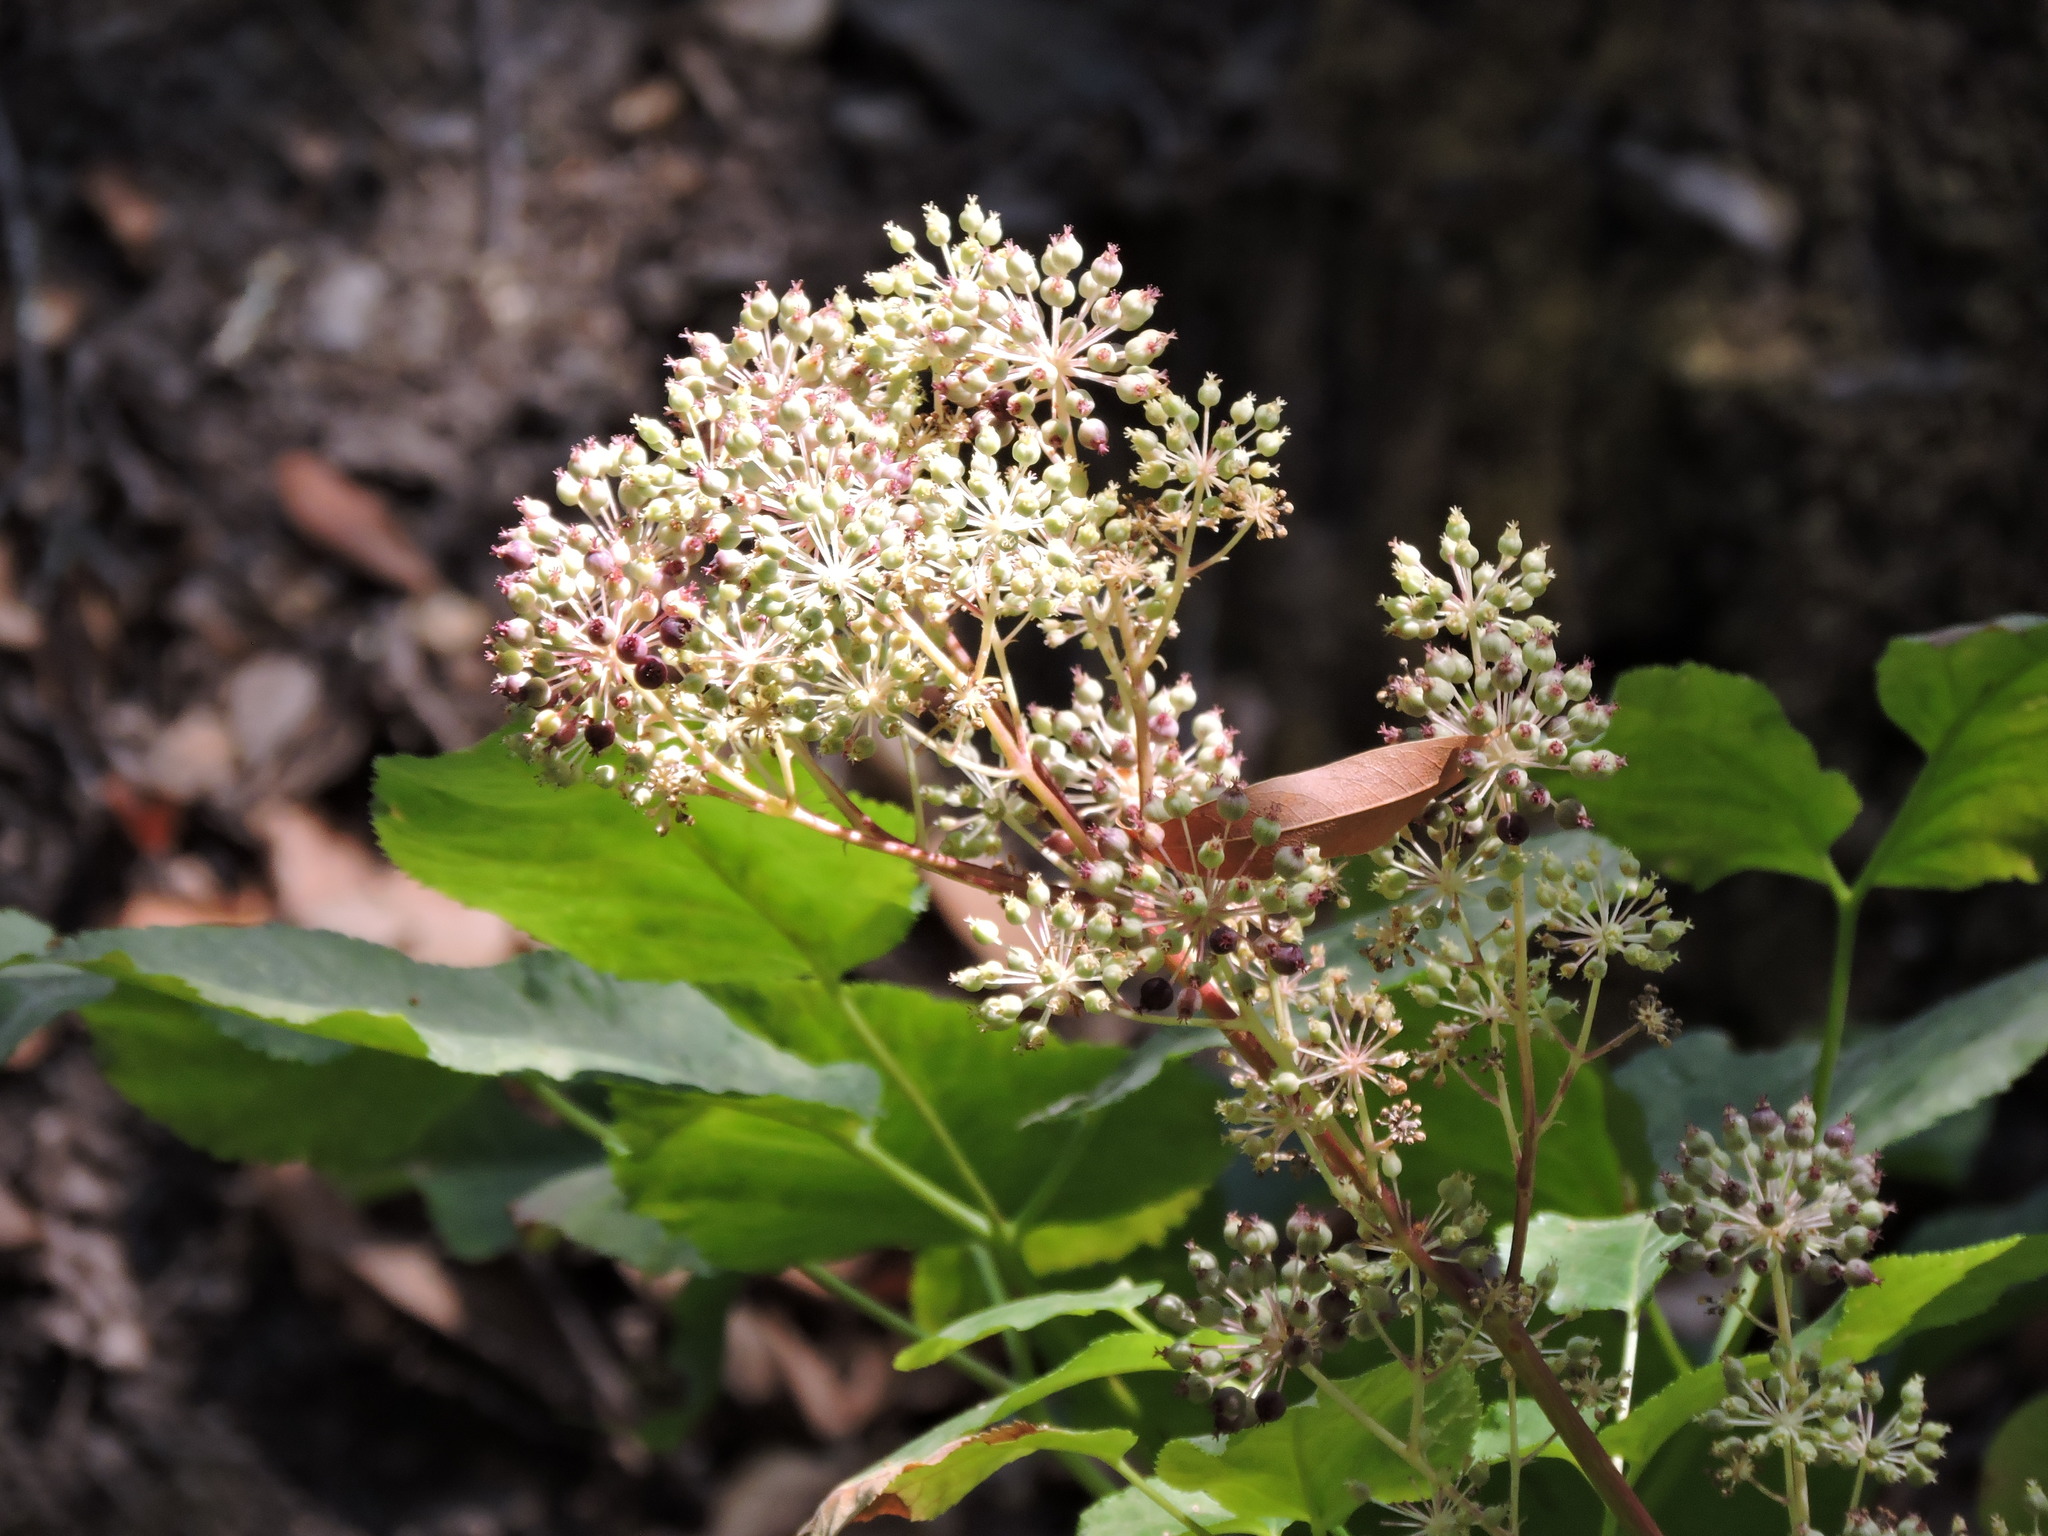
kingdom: Plantae
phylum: Tracheophyta
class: Magnoliopsida
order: Apiales
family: Araliaceae
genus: Aralia
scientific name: Aralia californica
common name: California-ginseng
